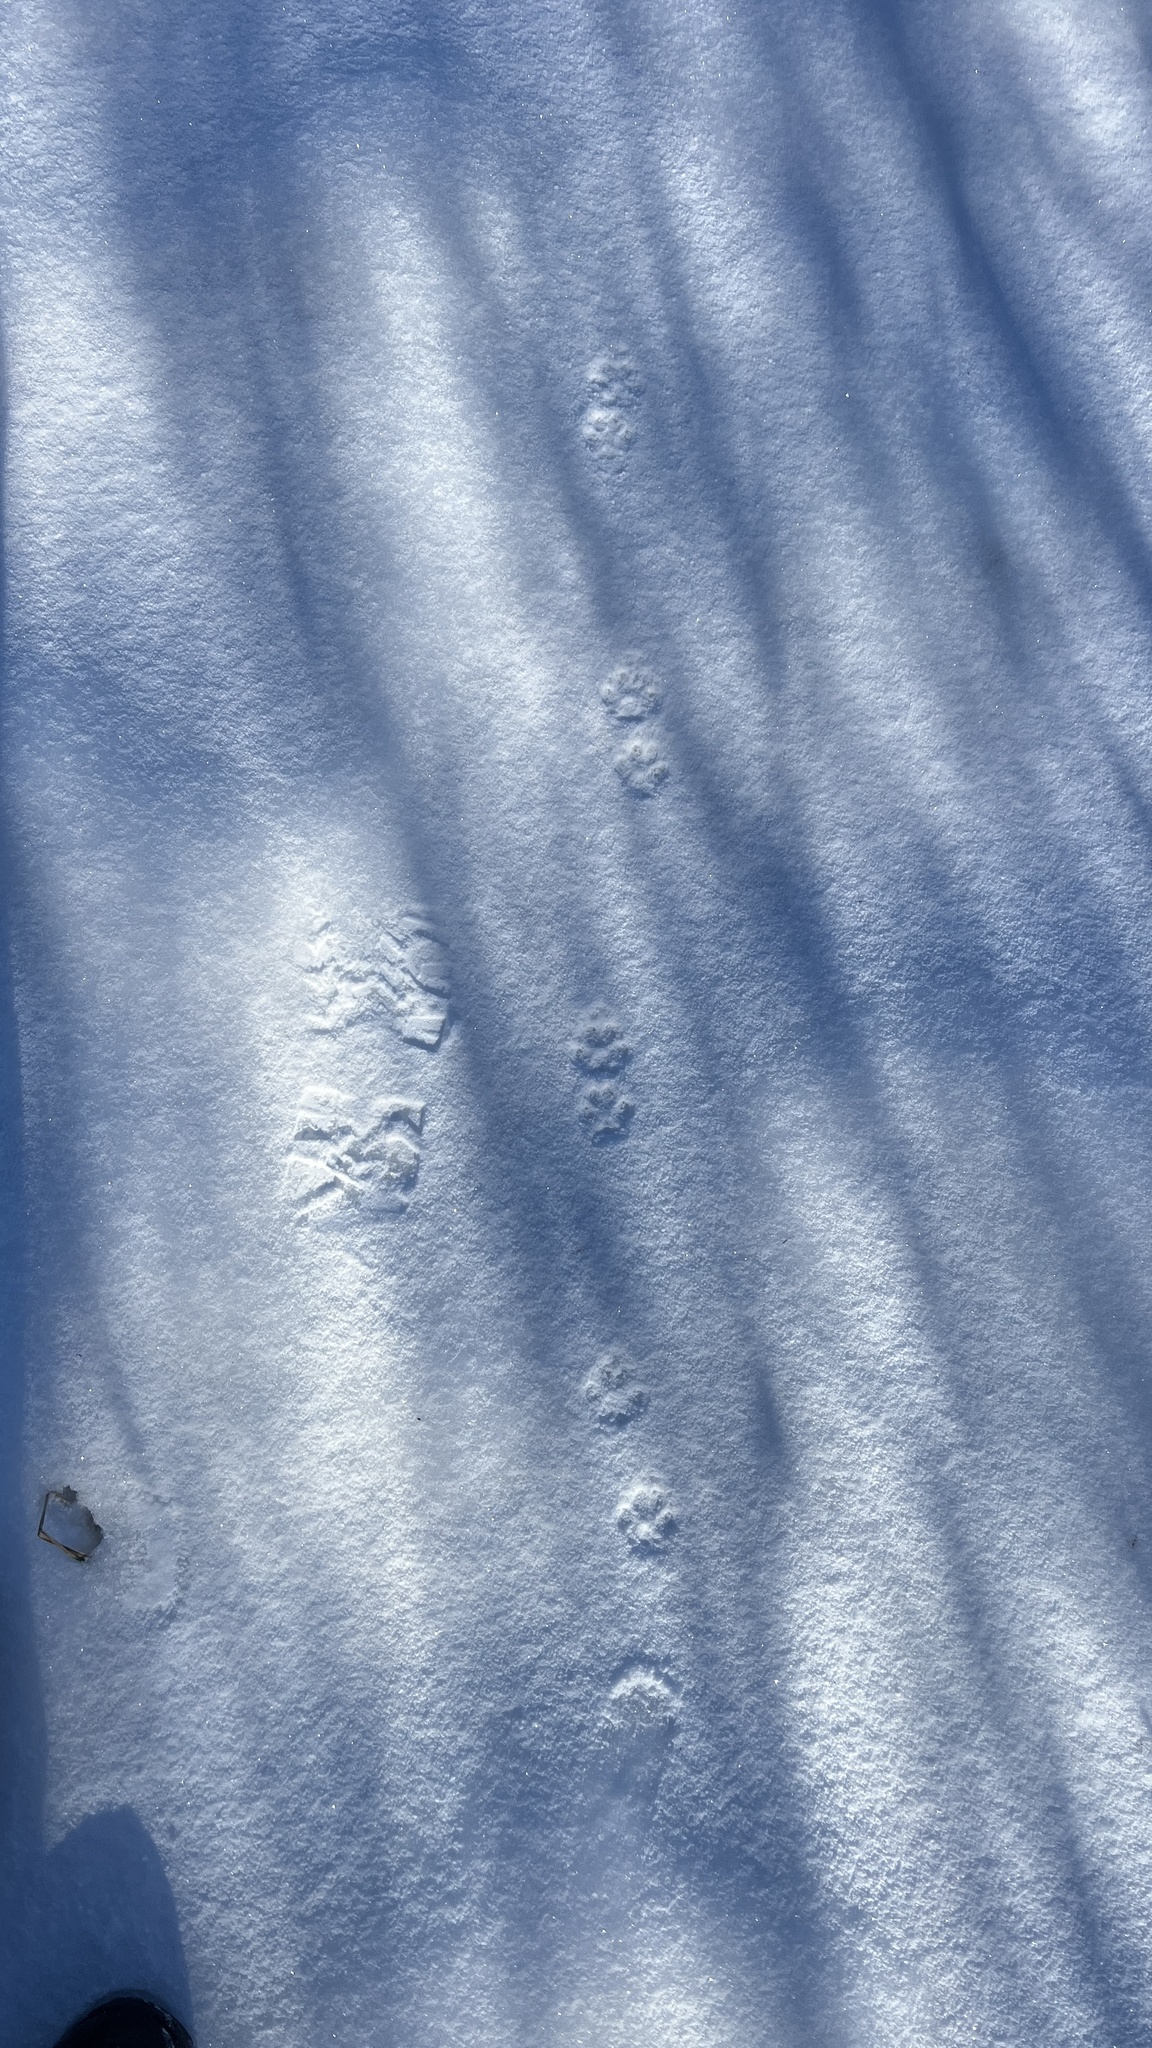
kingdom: Animalia
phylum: Chordata
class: Mammalia
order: Carnivora
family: Canidae
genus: Urocyon
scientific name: Urocyon cinereoargenteus
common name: Gray fox
